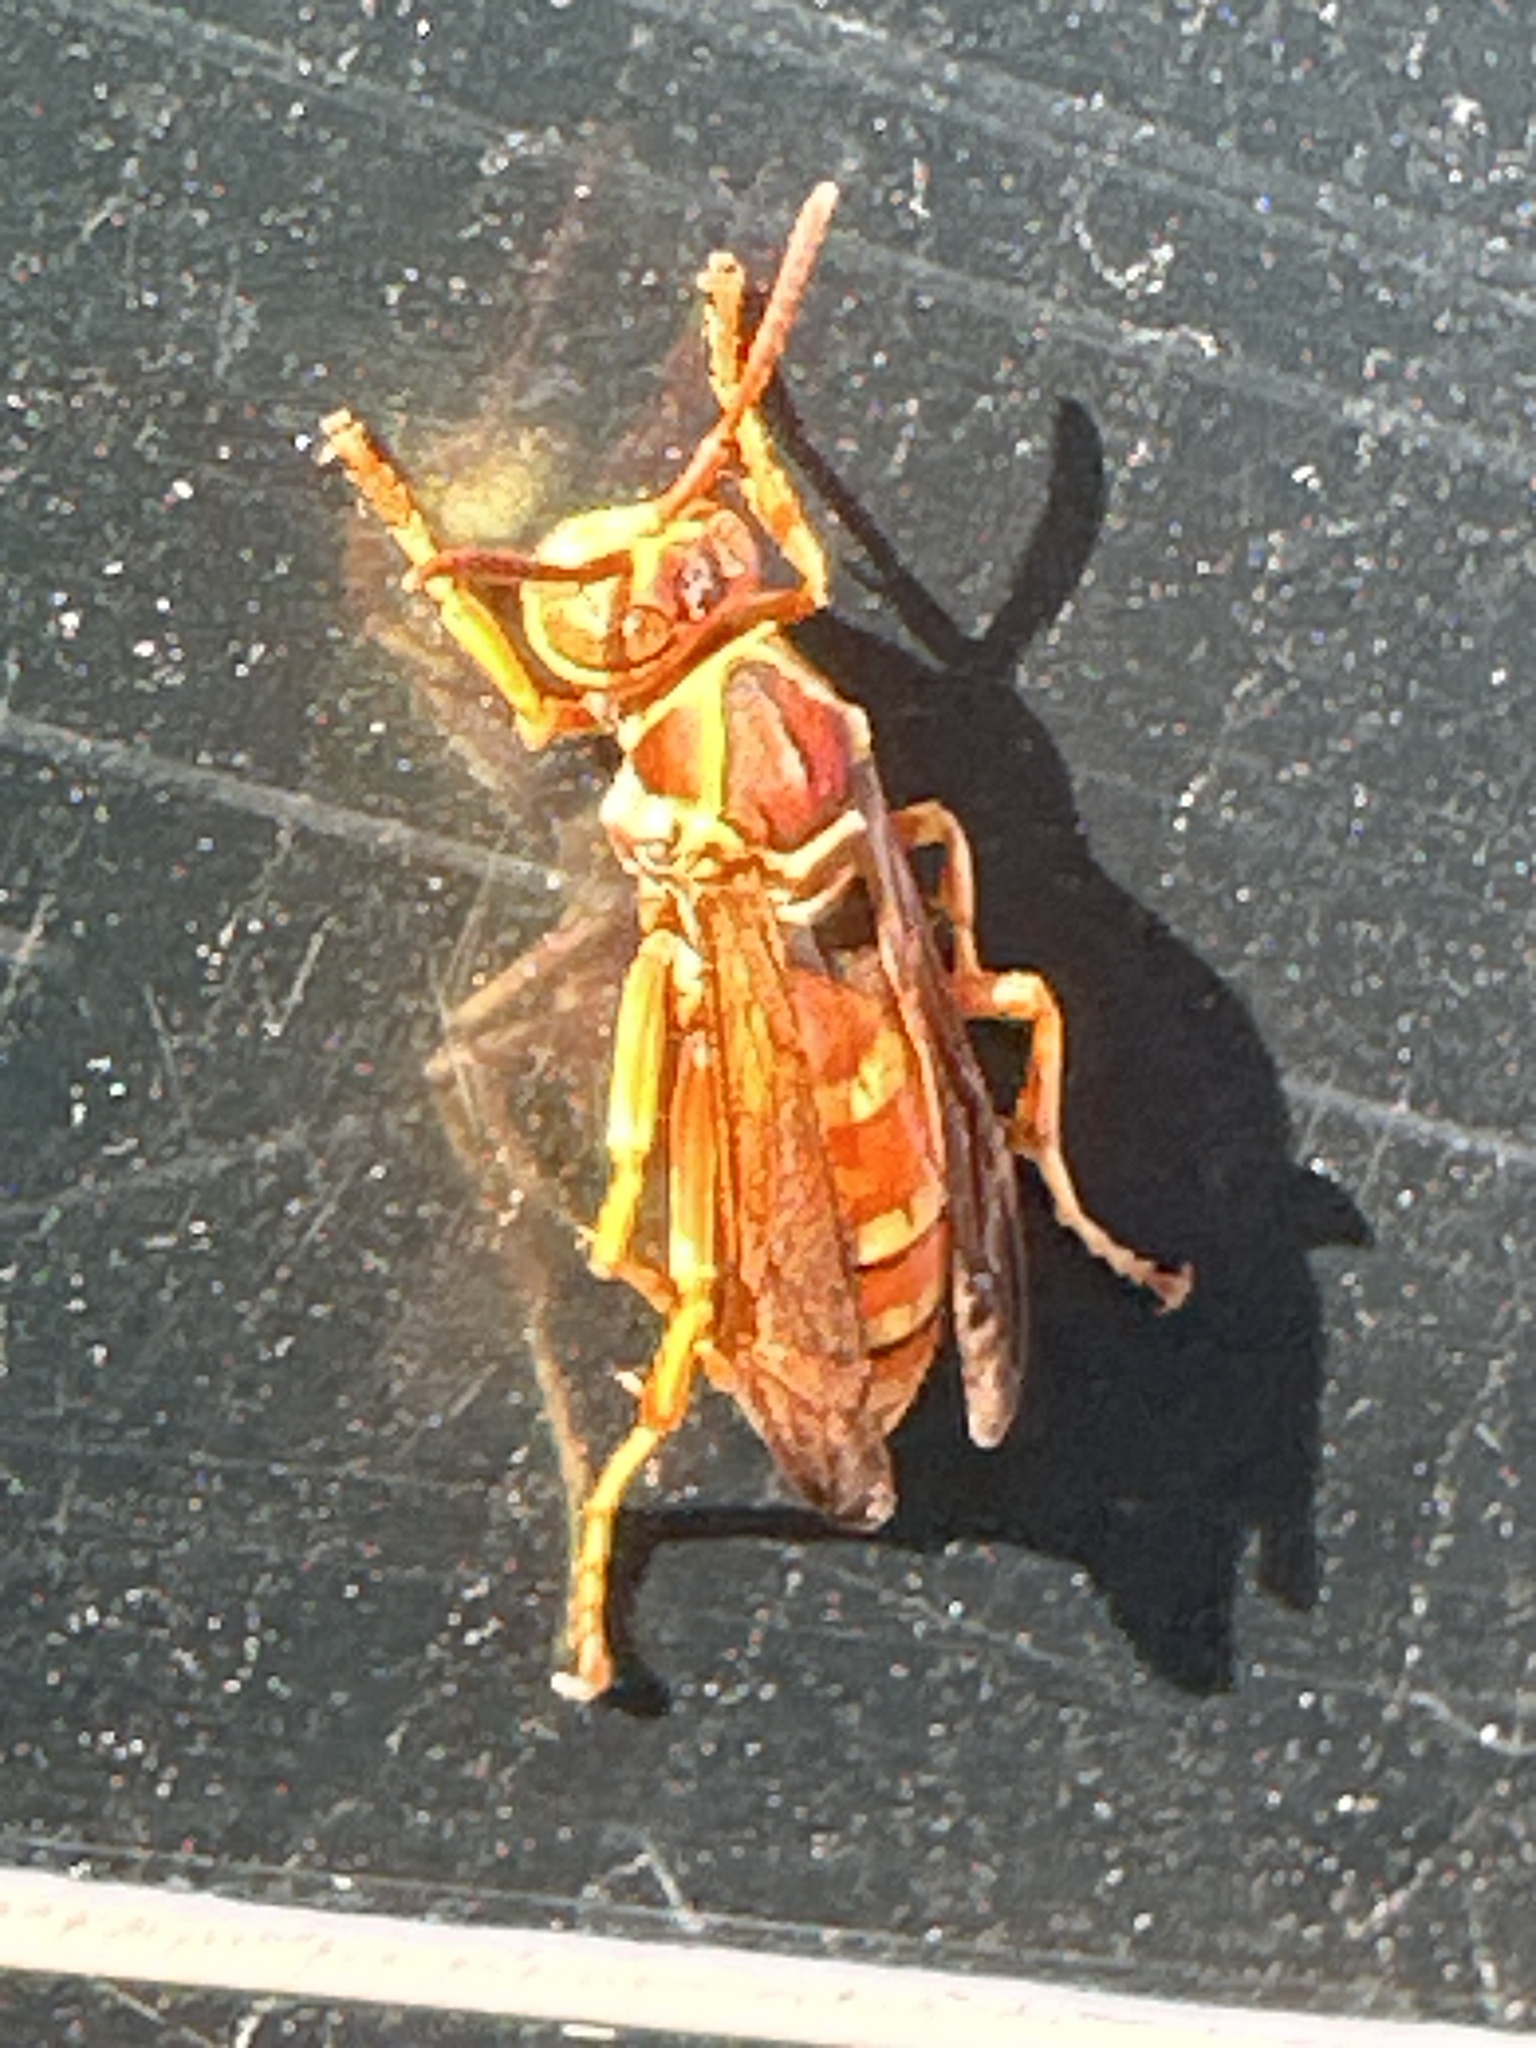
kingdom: Animalia
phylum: Arthropoda
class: Insecta
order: Hymenoptera
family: Eumenidae
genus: Polistes
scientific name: Polistes bellicosus
